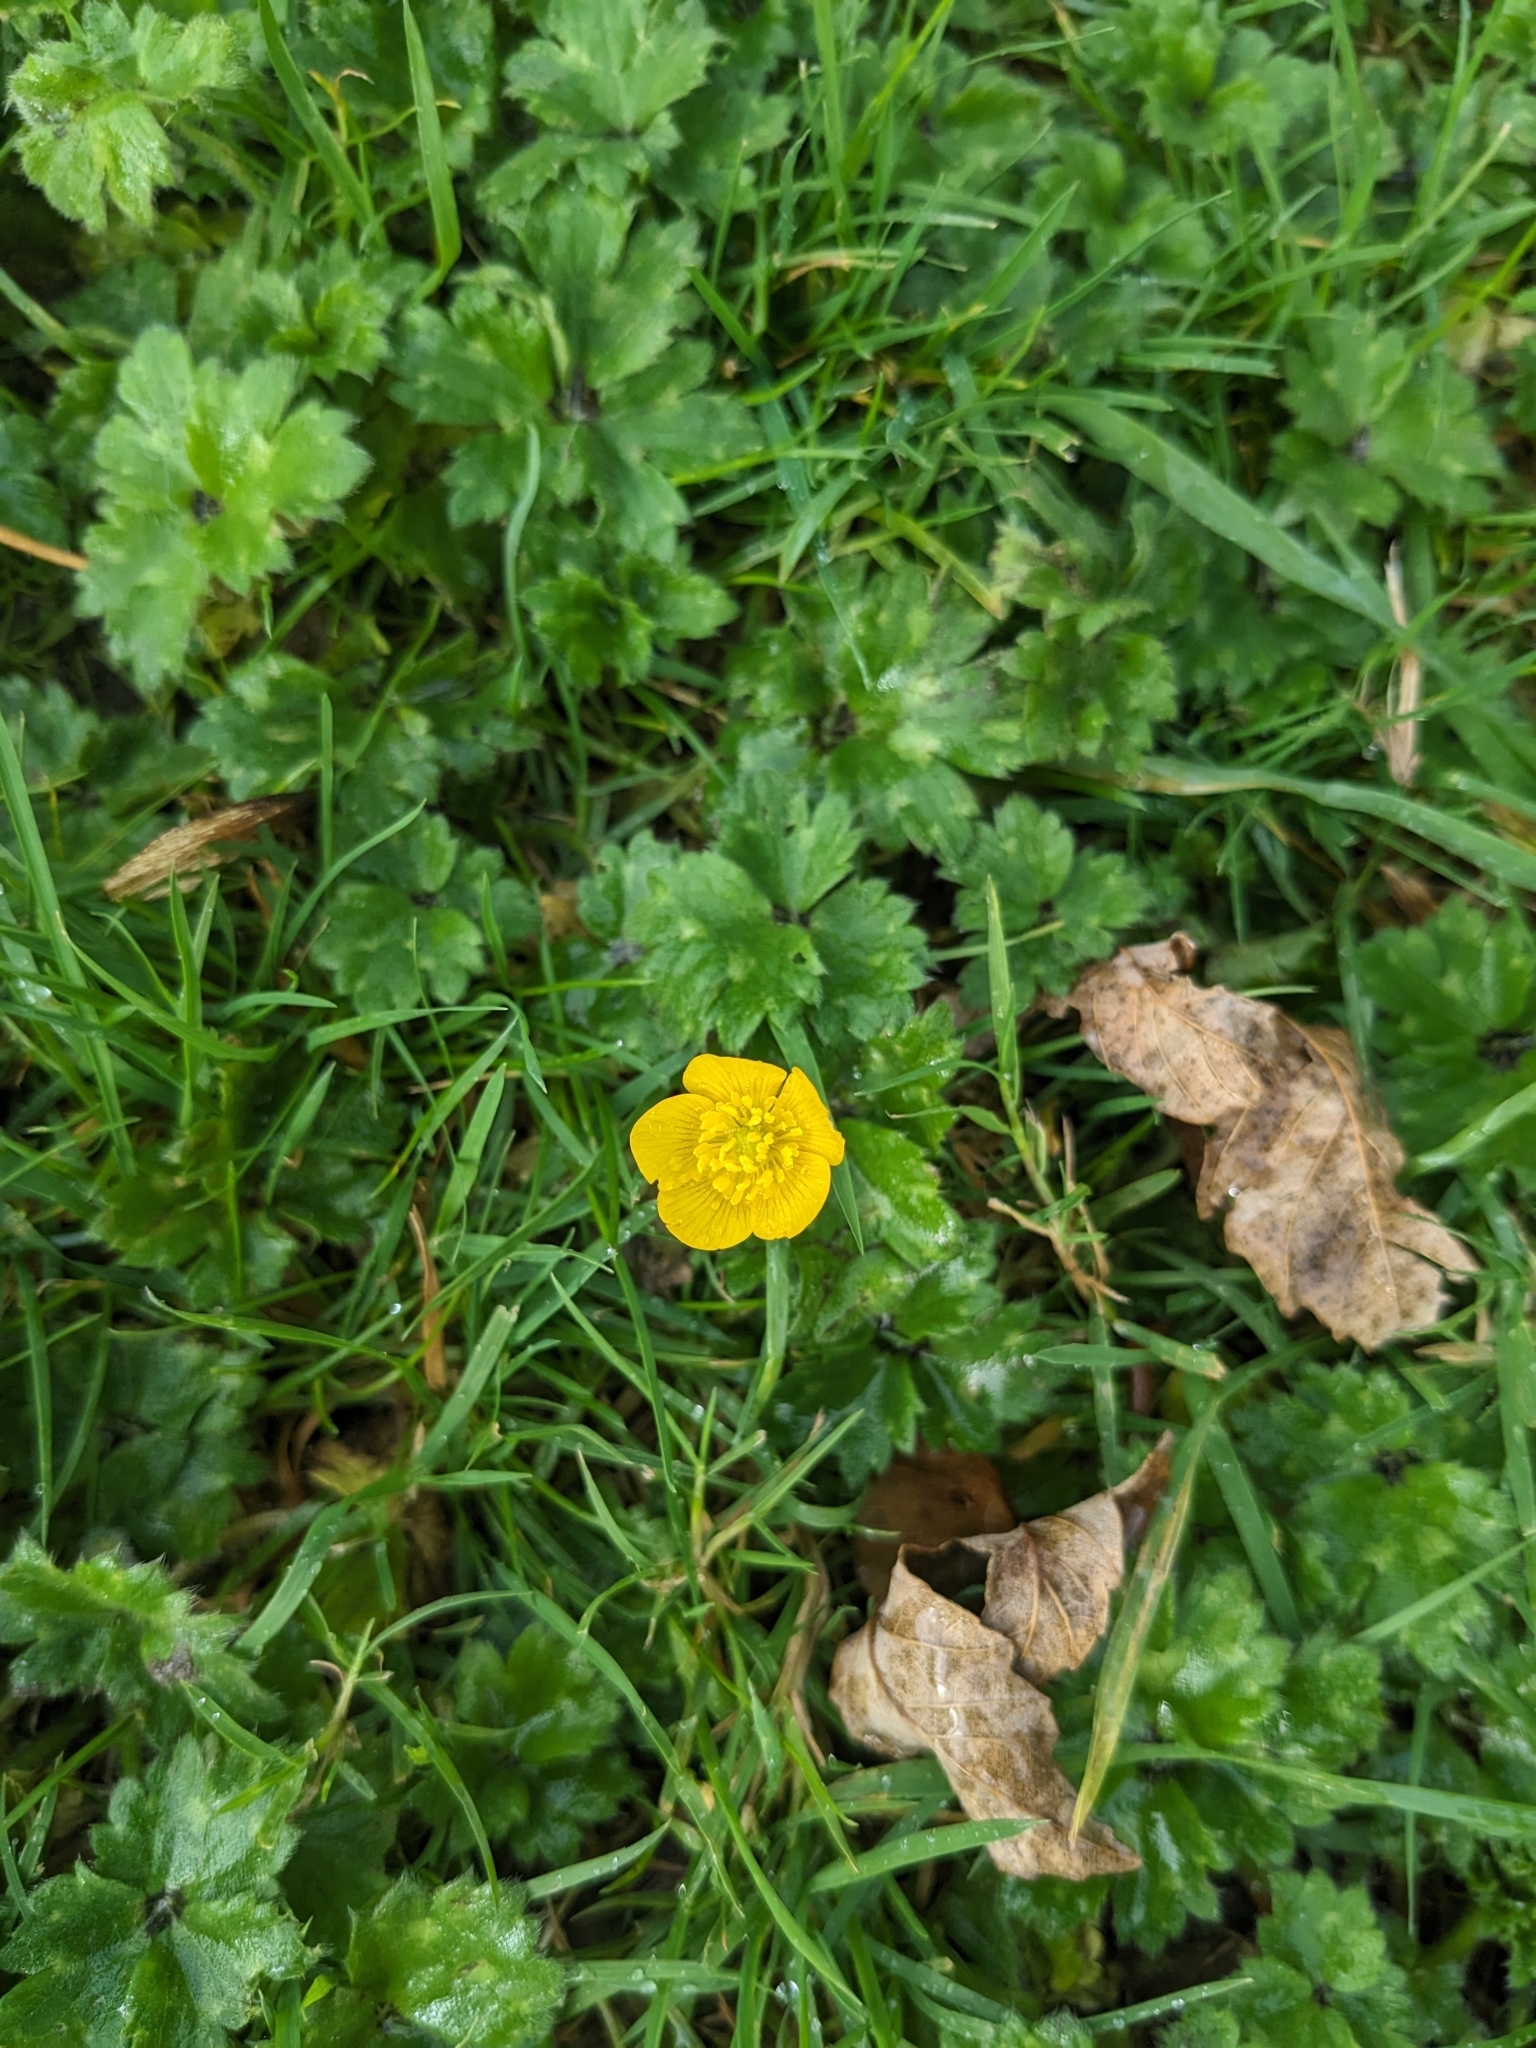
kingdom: Plantae
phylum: Tracheophyta
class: Magnoliopsida
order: Ranunculales
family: Ranunculaceae
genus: Ranunculus
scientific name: Ranunculus repens
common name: Creeping buttercup
